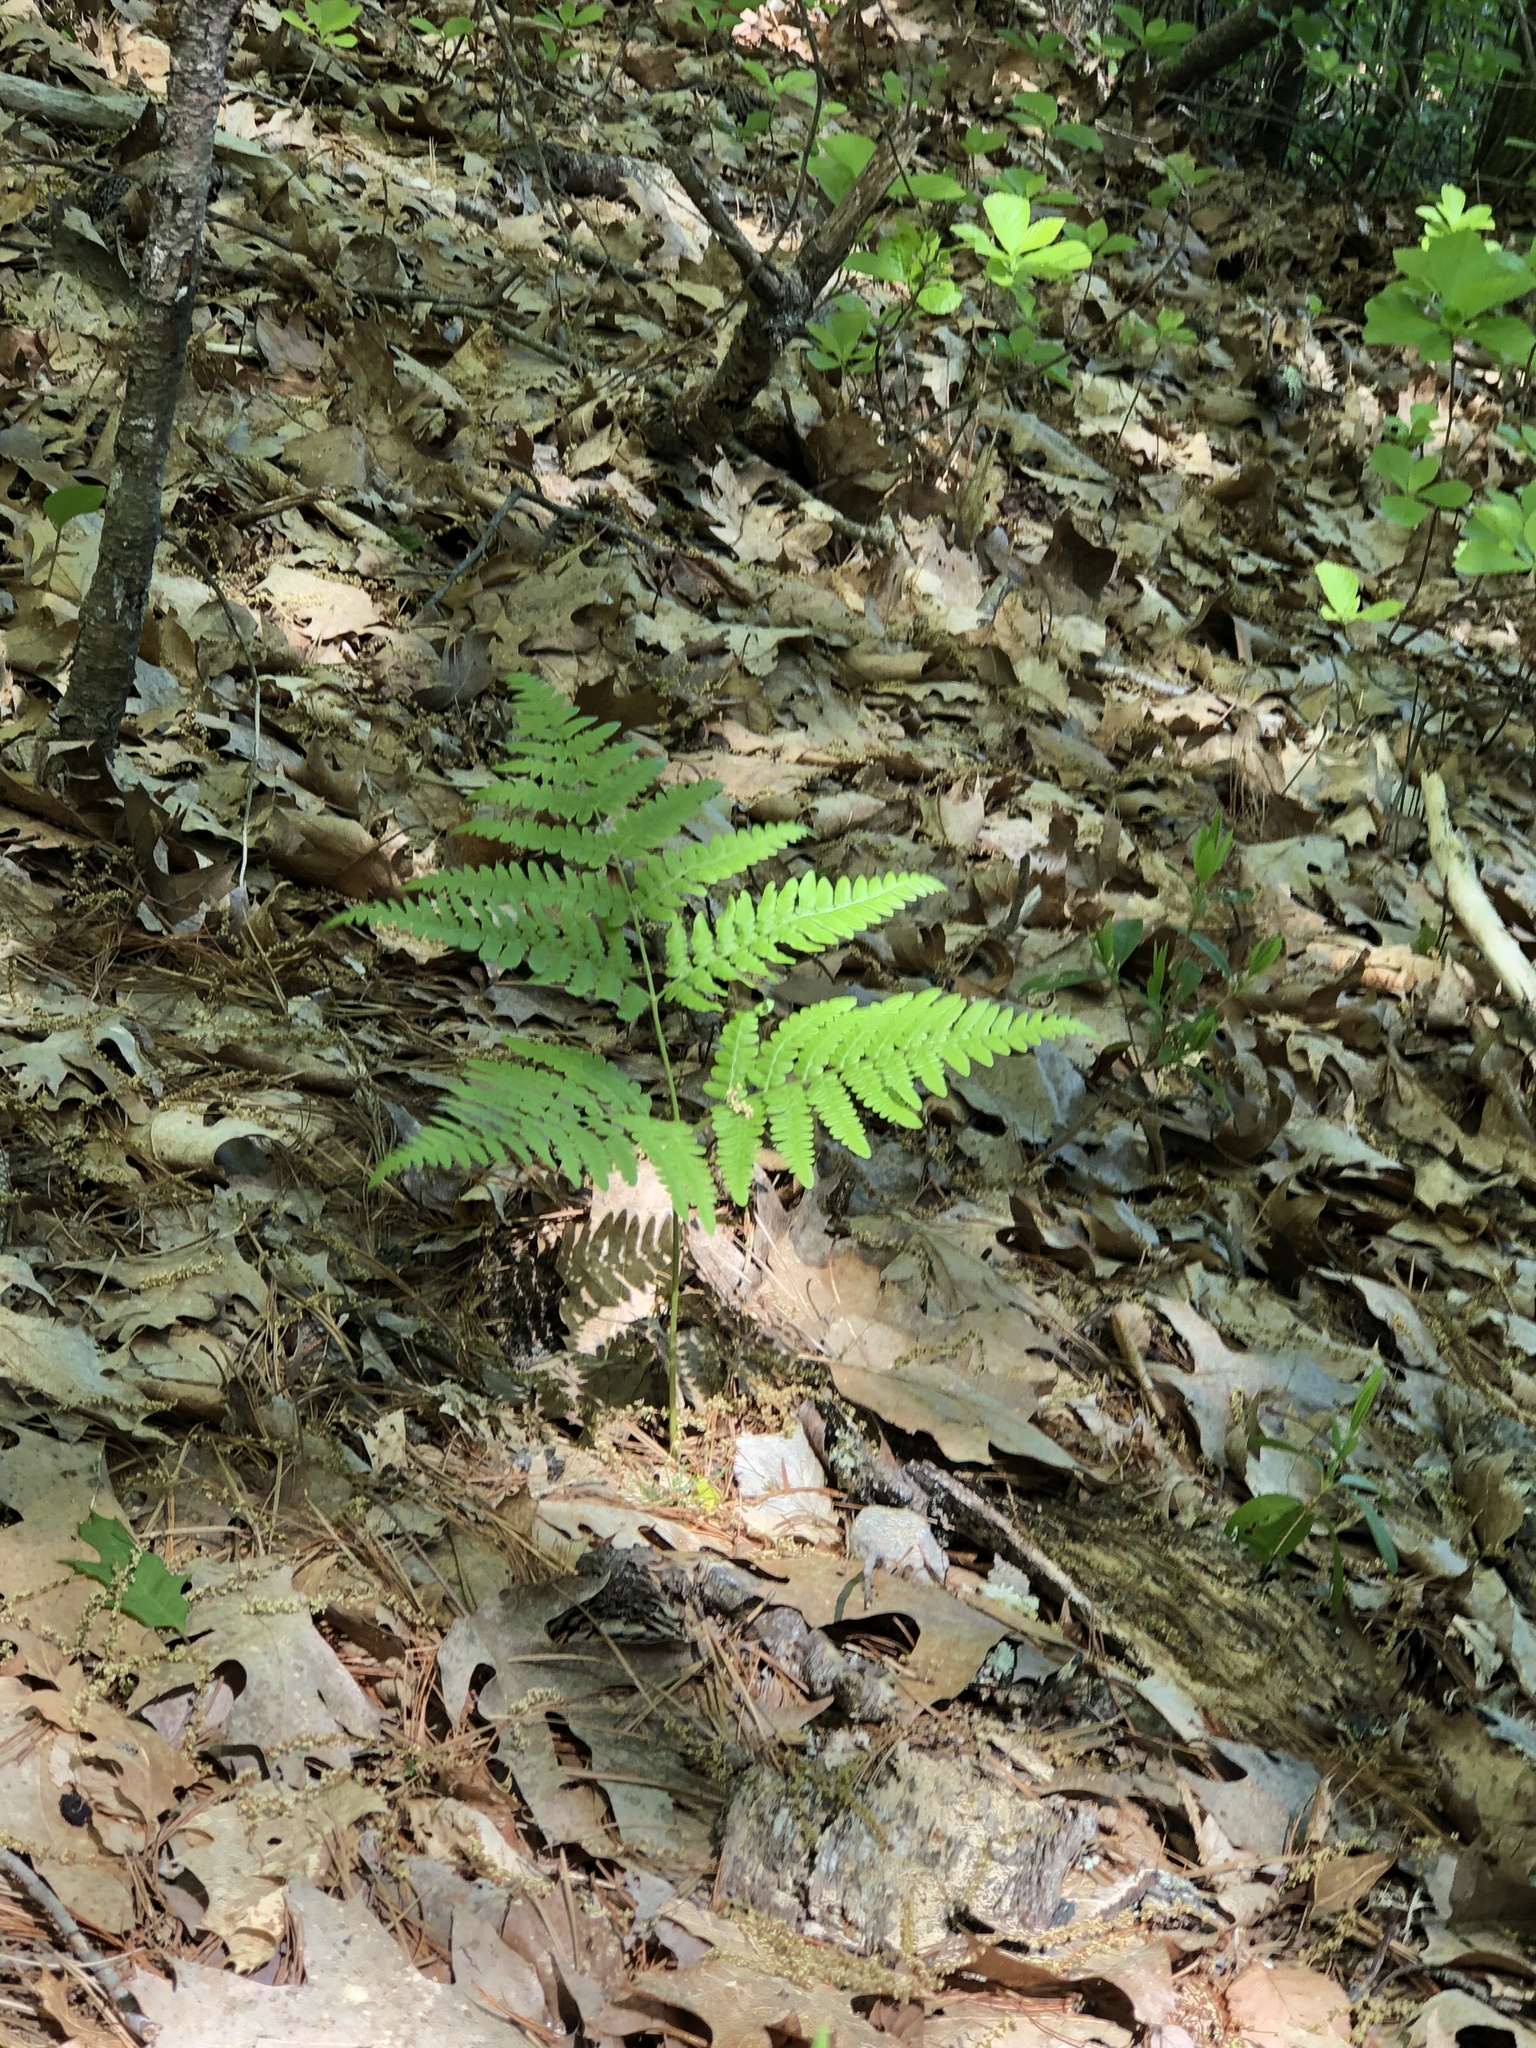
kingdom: Plantae
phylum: Tracheophyta
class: Polypodiopsida
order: Polypodiales
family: Dennstaedtiaceae
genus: Pteridium
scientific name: Pteridium aquilinum
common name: Bracken
